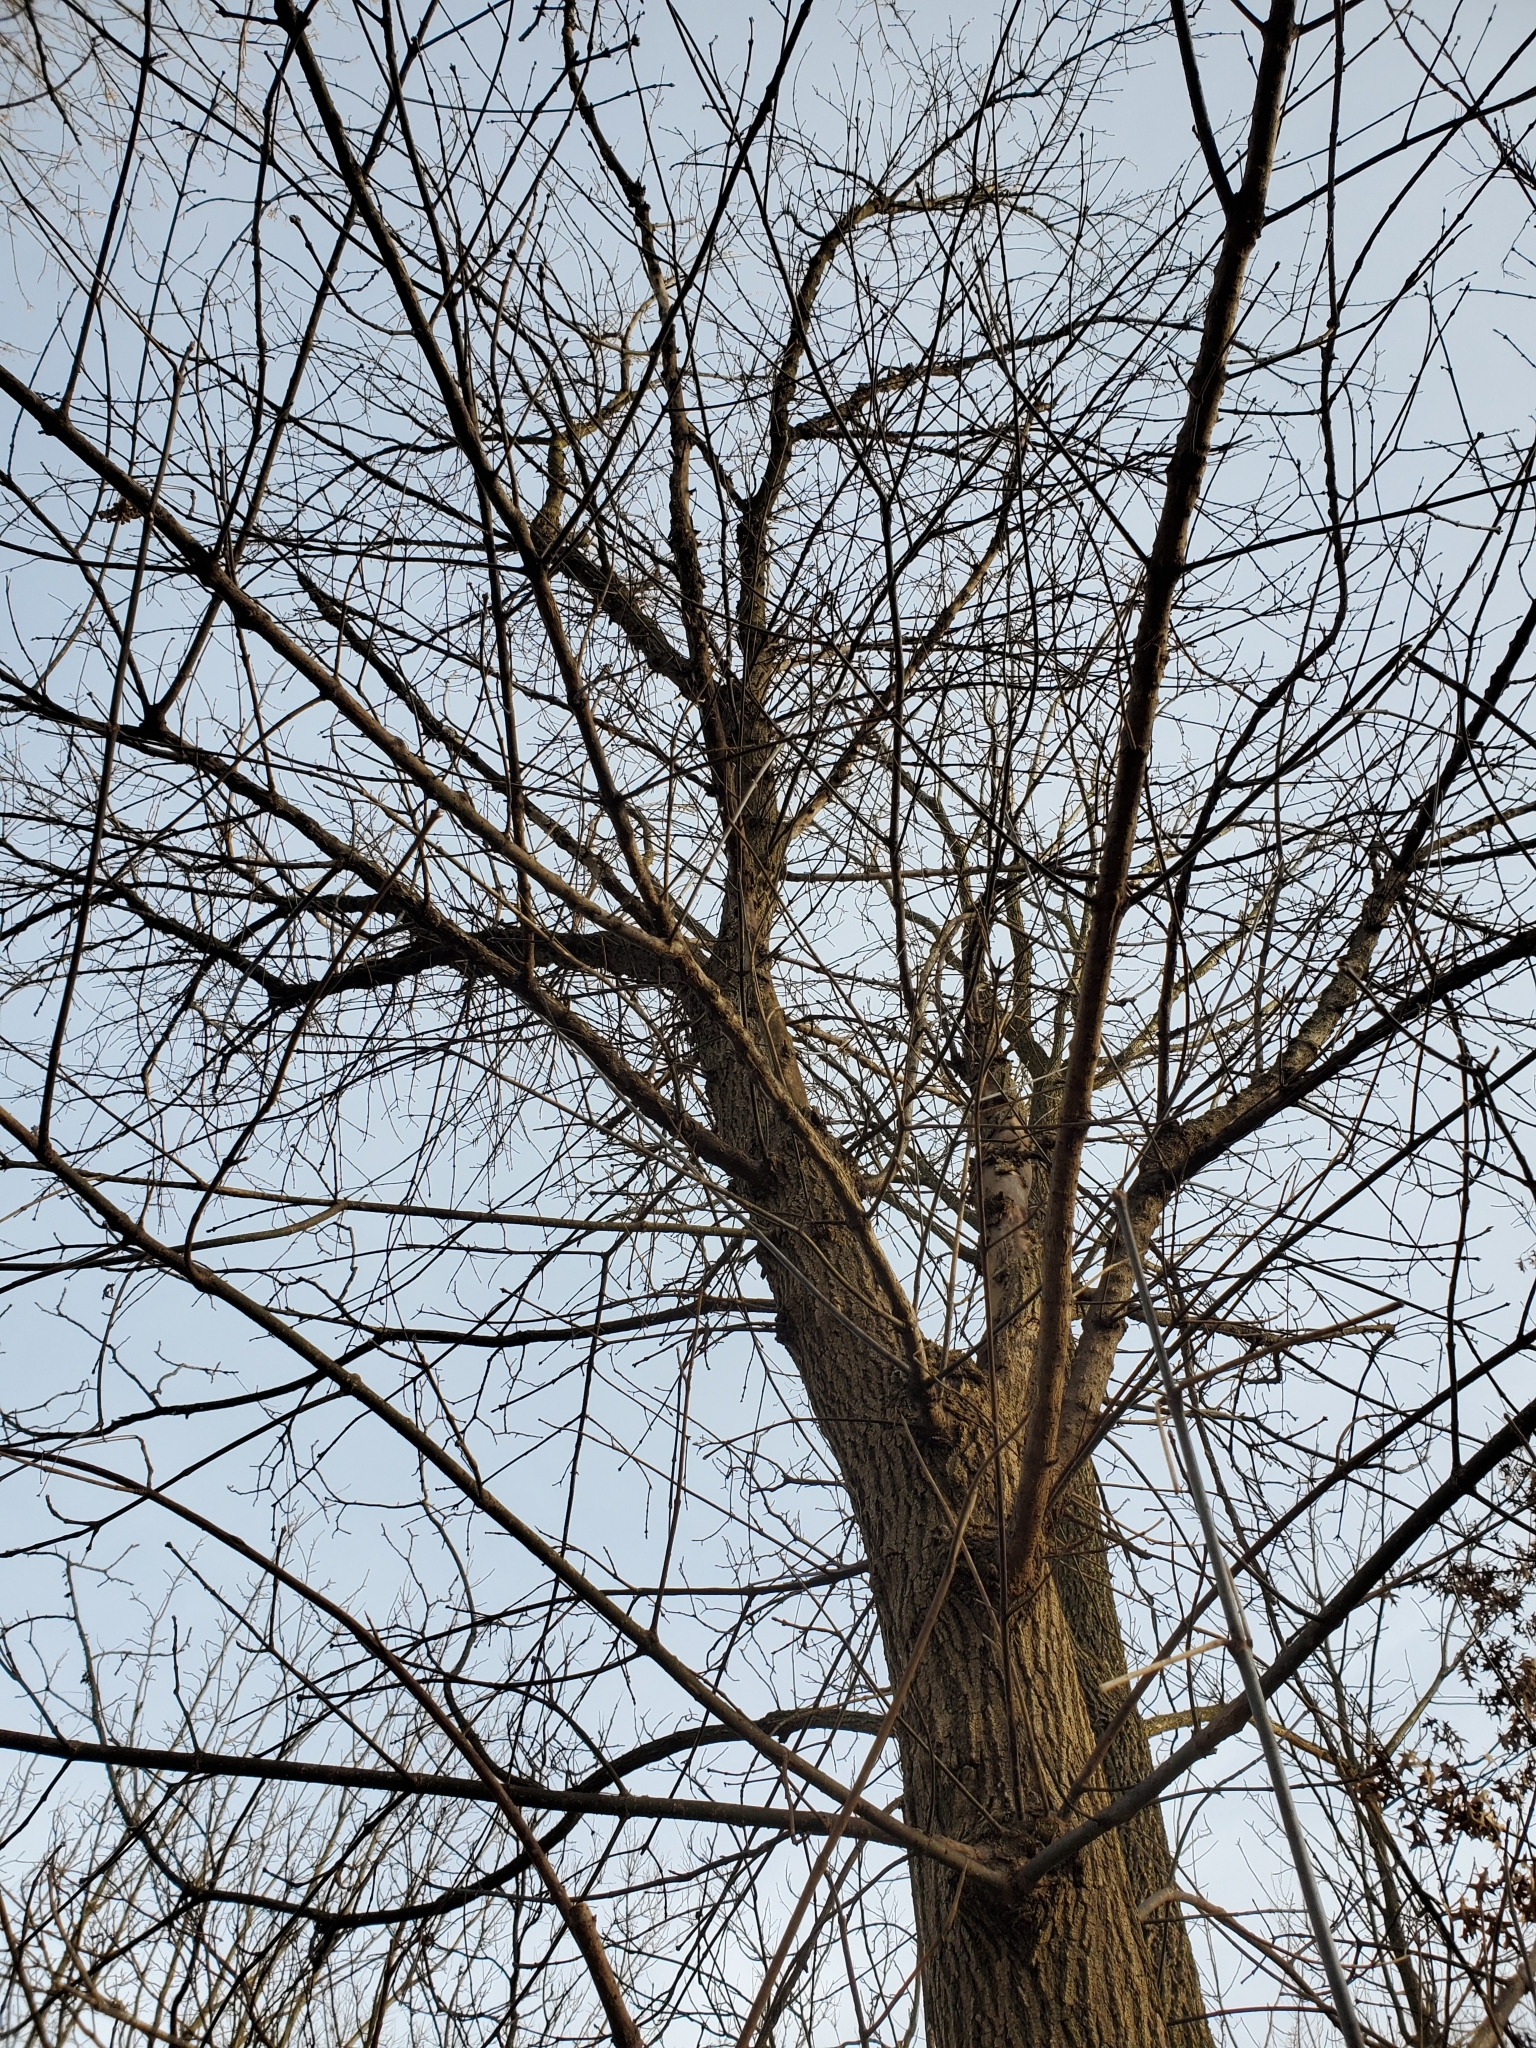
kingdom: Plantae
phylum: Tracheophyta
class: Magnoliopsida
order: Sapindales
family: Sapindaceae
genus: Acer
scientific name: Acer negundo
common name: Ashleaf maple
